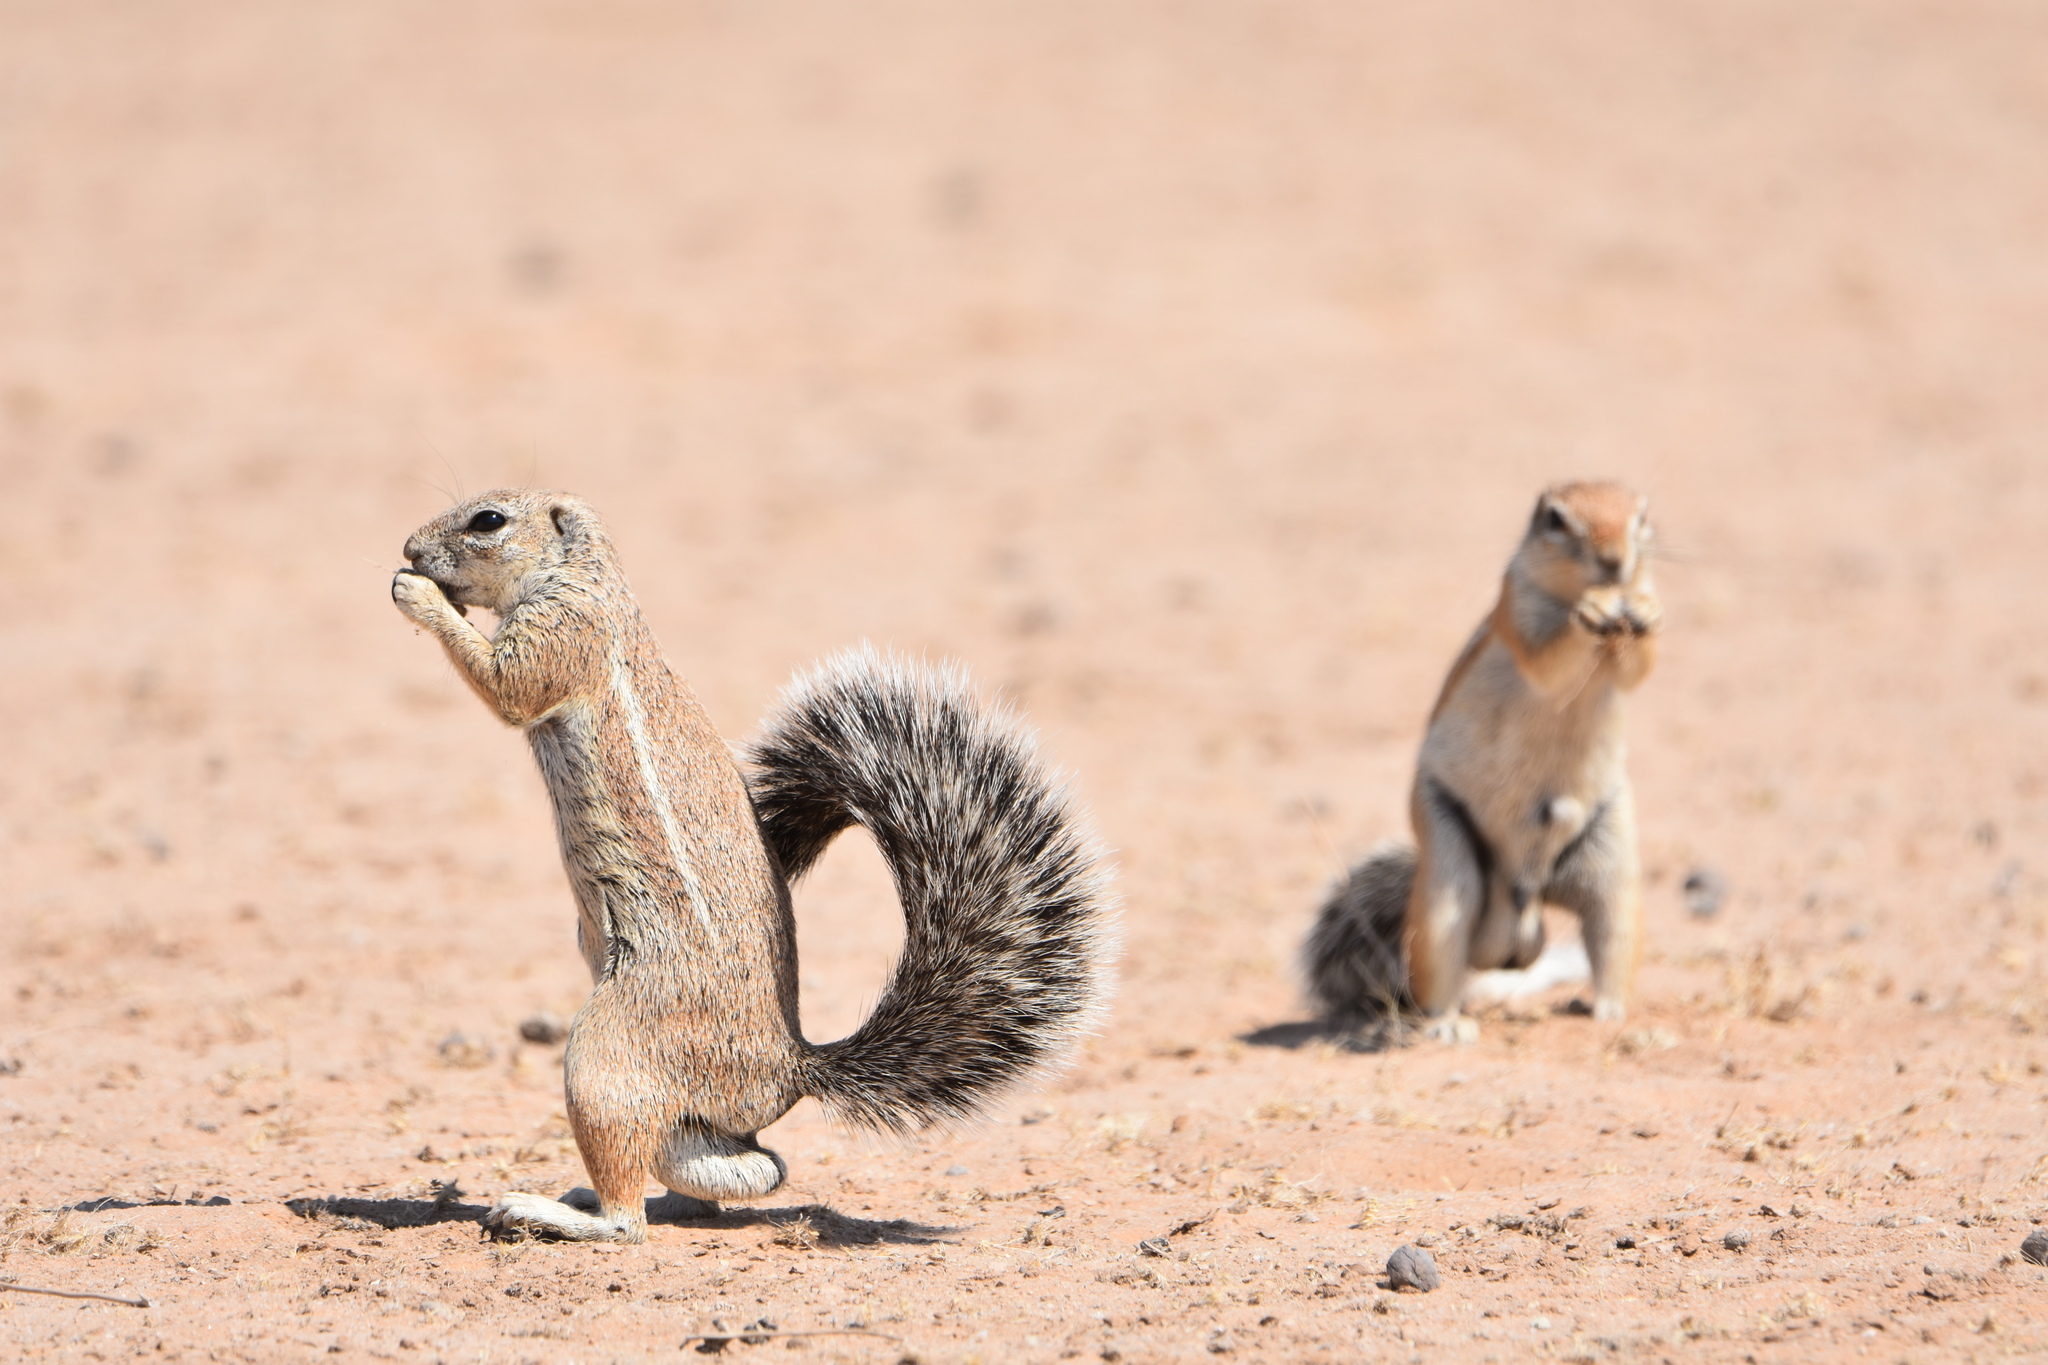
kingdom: Animalia
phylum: Chordata
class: Mammalia
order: Rodentia
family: Sciuridae
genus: Xerus
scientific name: Xerus inauris
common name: South african ground squirrel
